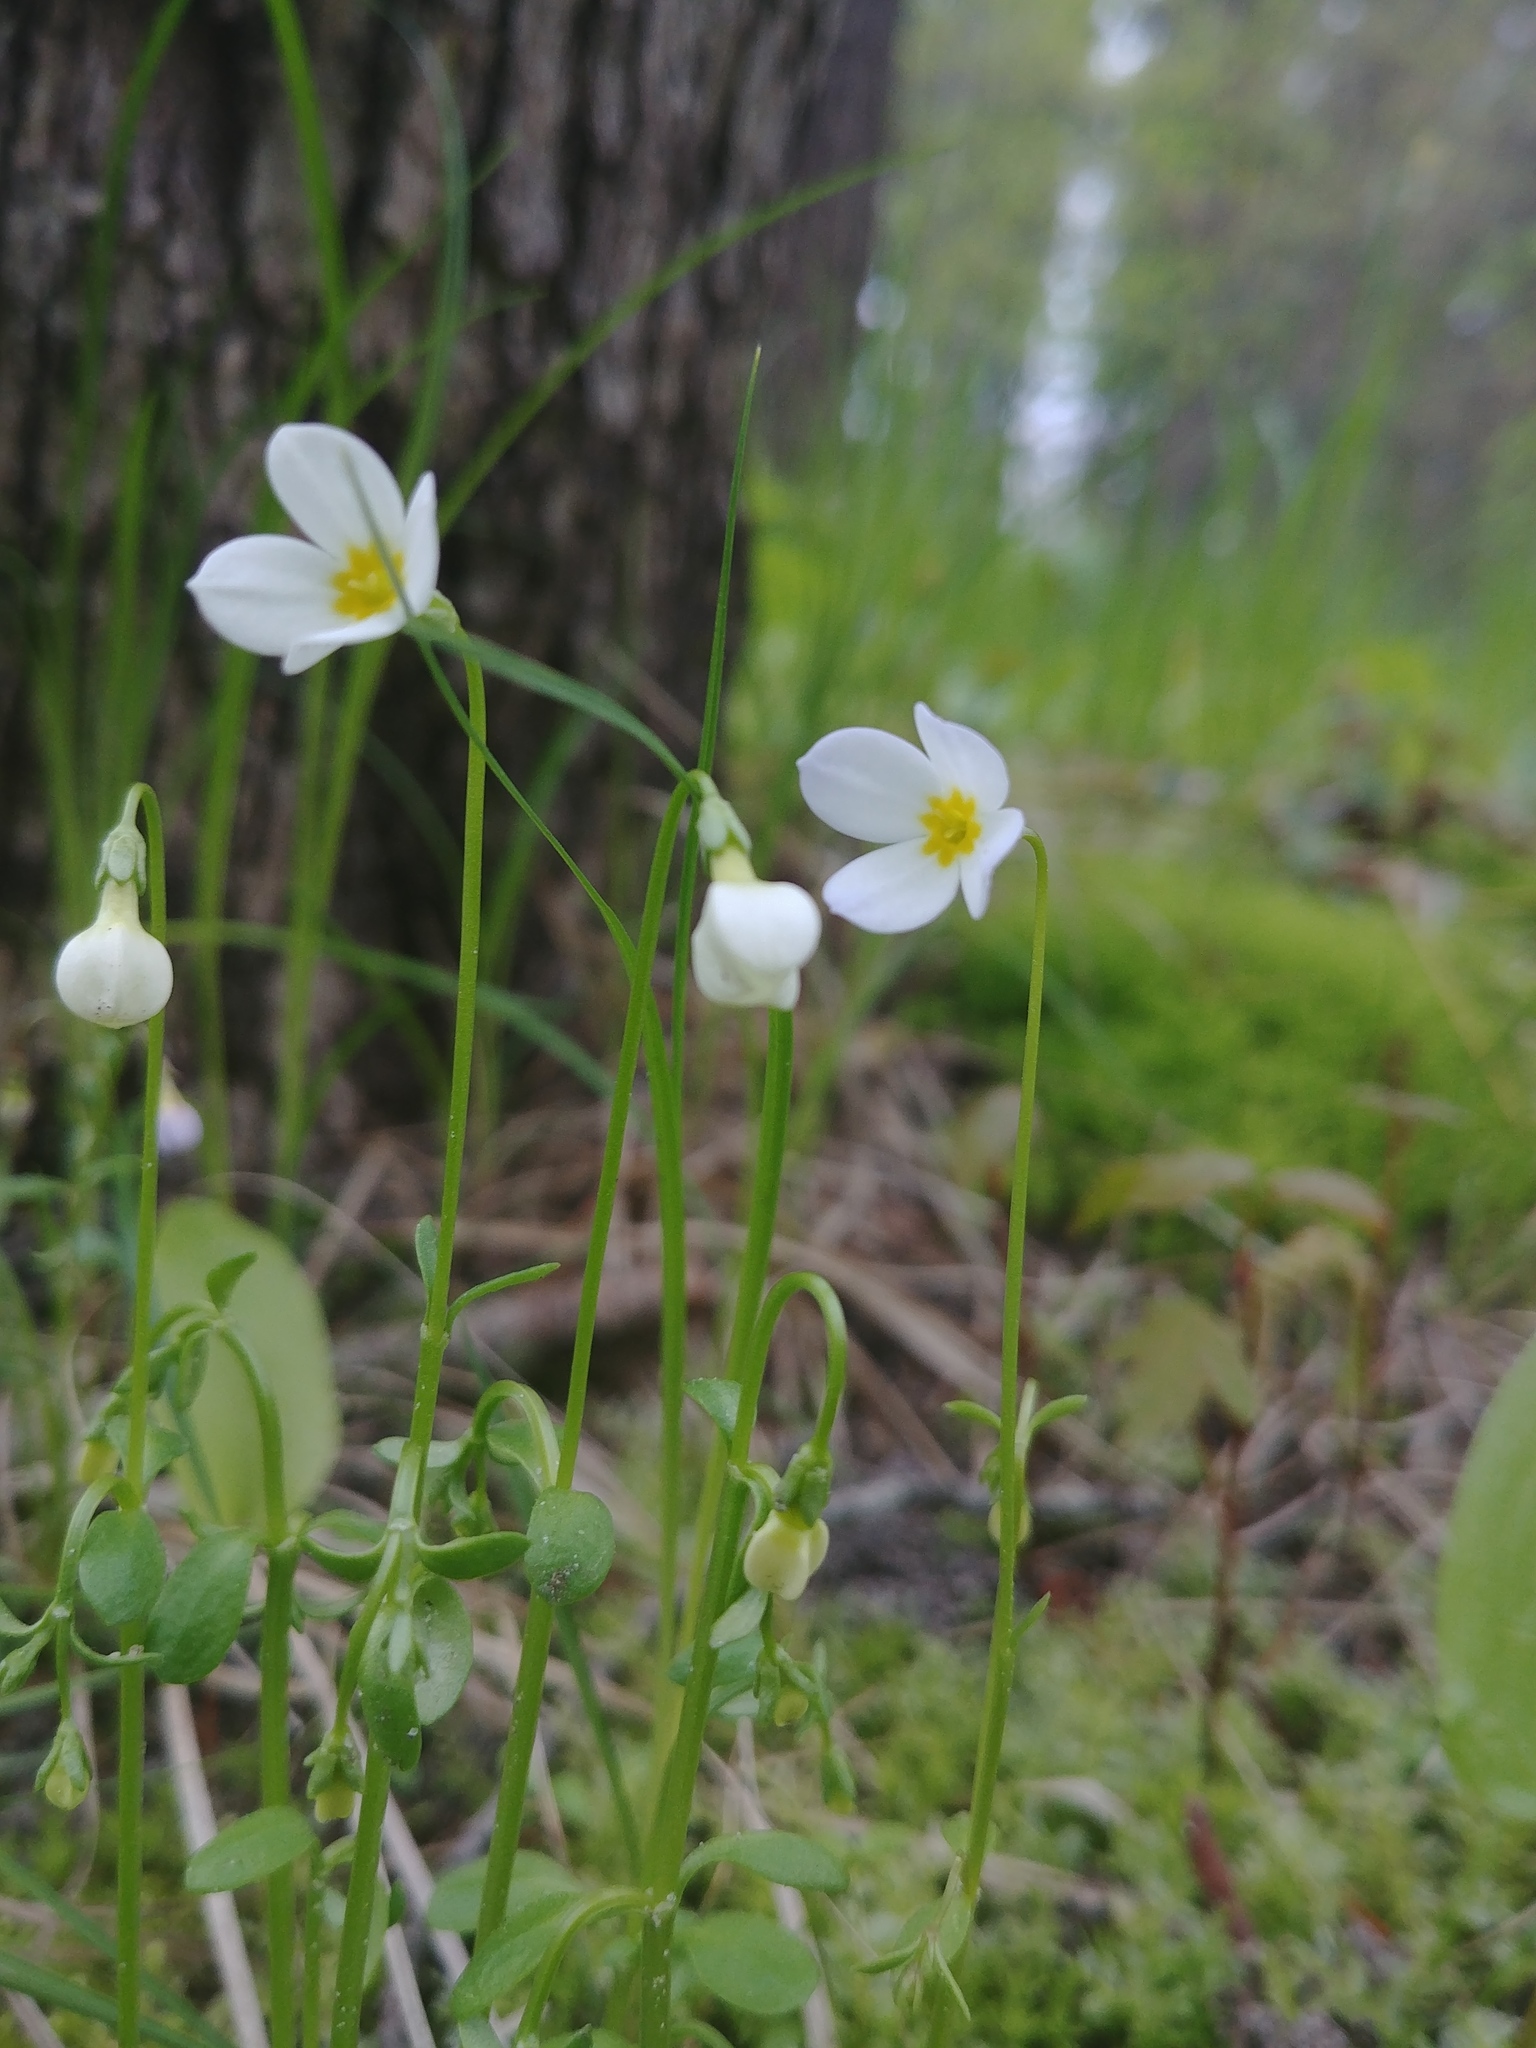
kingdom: Plantae
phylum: Tracheophyta
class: Magnoliopsida
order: Gentianales
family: Rubiaceae
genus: Houstonia
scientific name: Houstonia caerulea
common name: Bluets
